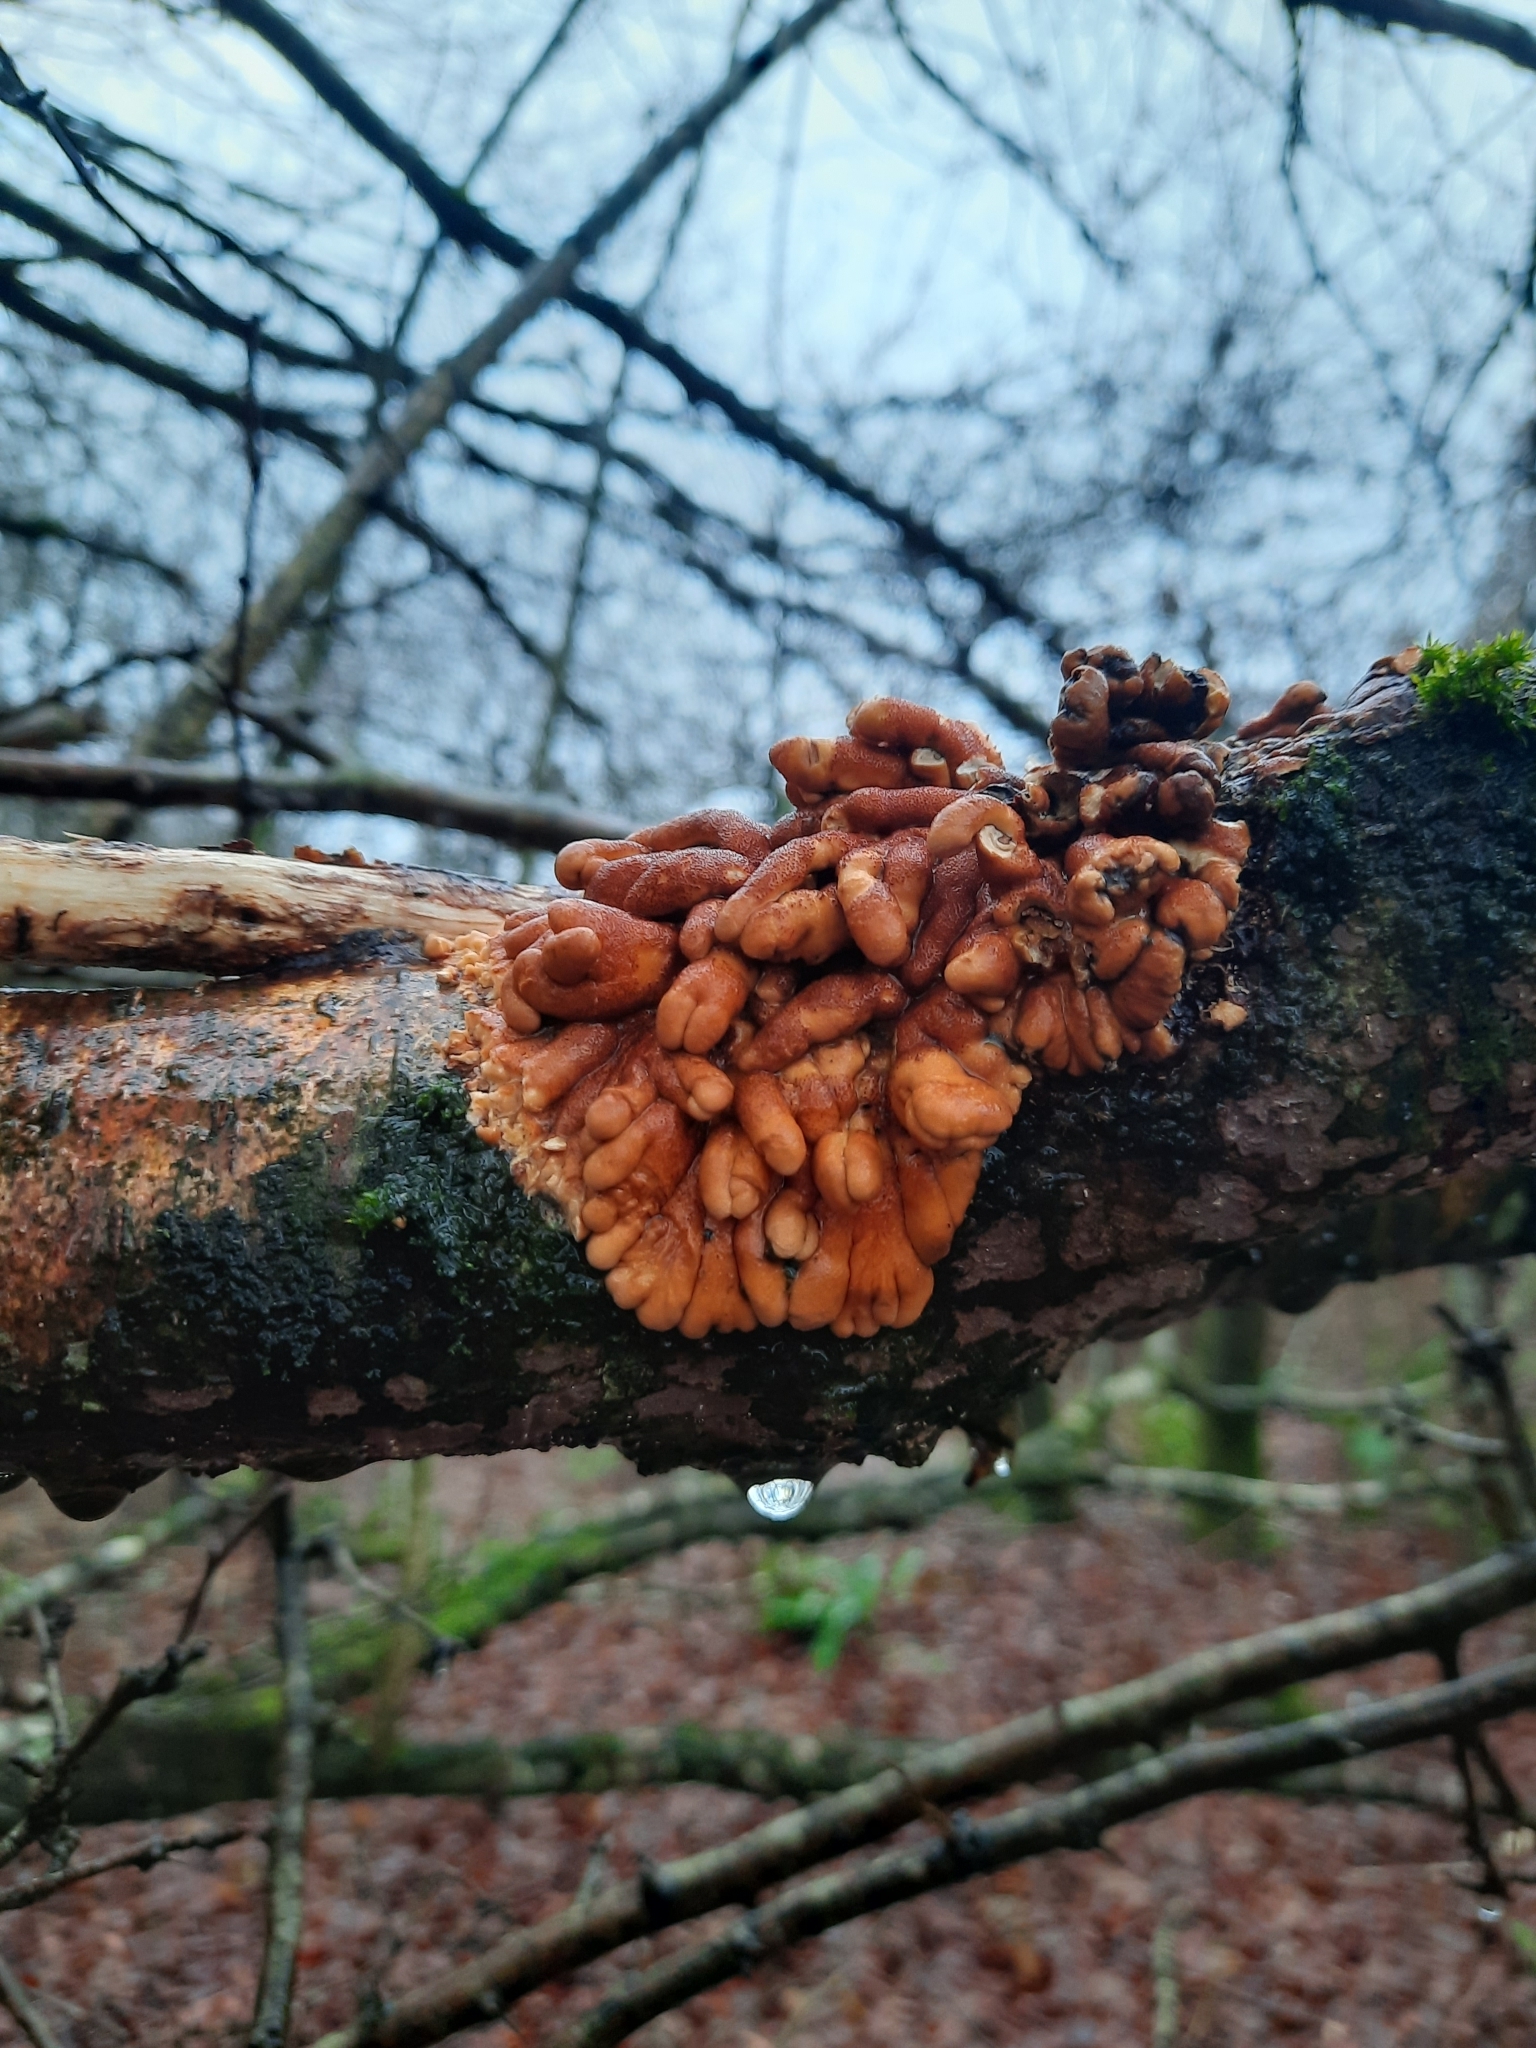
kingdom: Fungi
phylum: Ascomycota
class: Sordariomycetes
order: Hypocreales
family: Hypocreaceae
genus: Hypocreopsis
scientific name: Hypocreopsis rhododendri
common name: Hazel gloves
